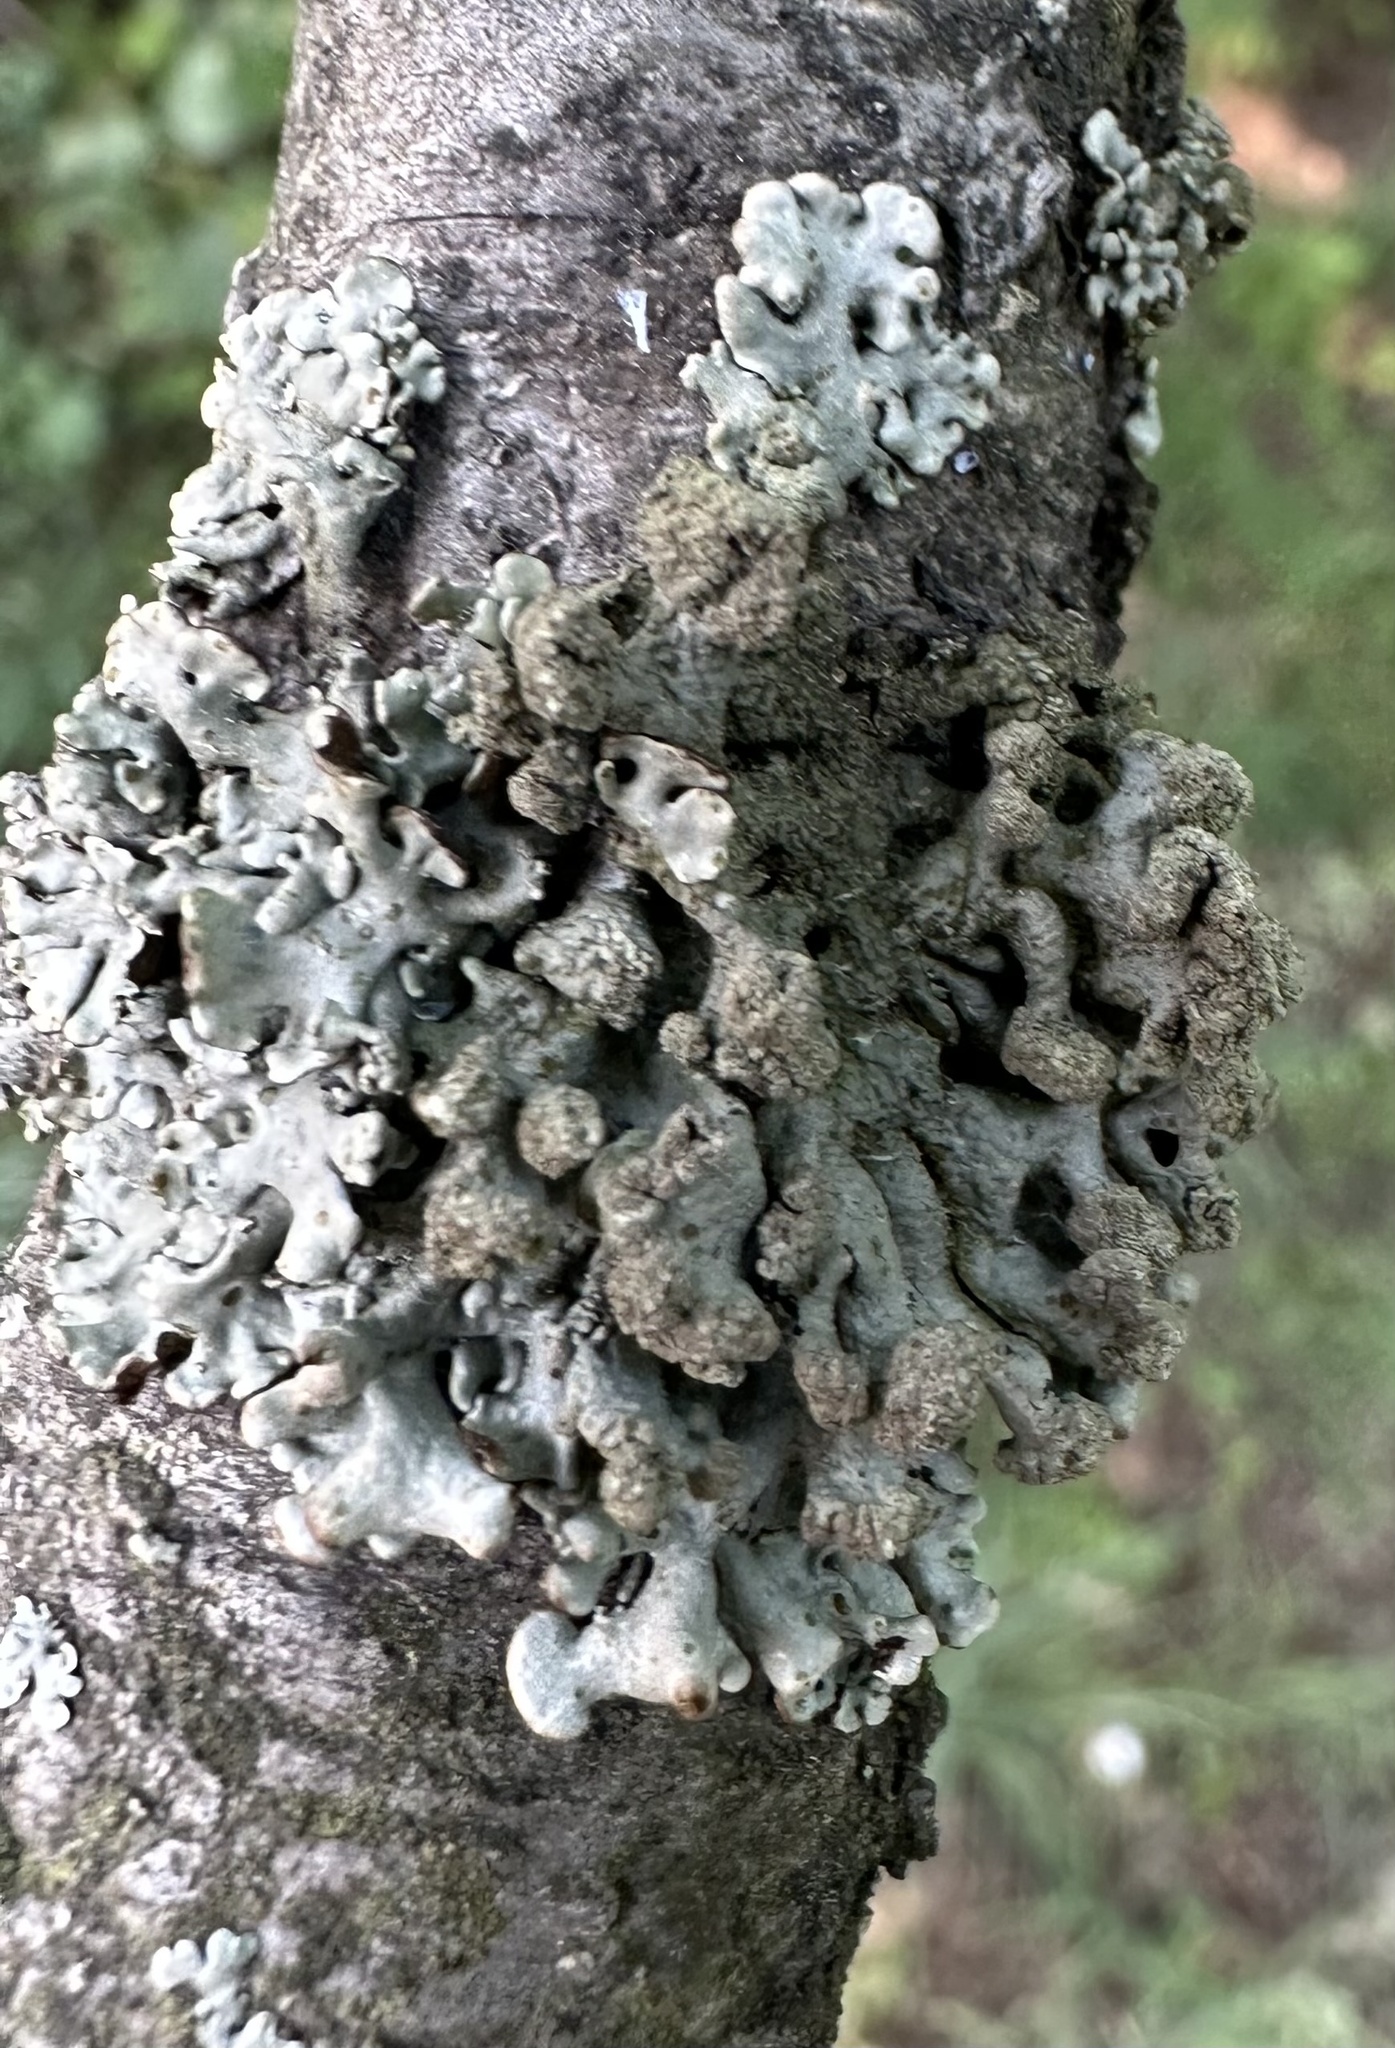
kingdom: Fungi
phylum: Ascomycota
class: Lecanoromycetes
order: Lecanorales
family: Parmeliaceae
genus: Hypogymnia
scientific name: Hypogymnia tubulosa
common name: Powder-headed tube lichen
